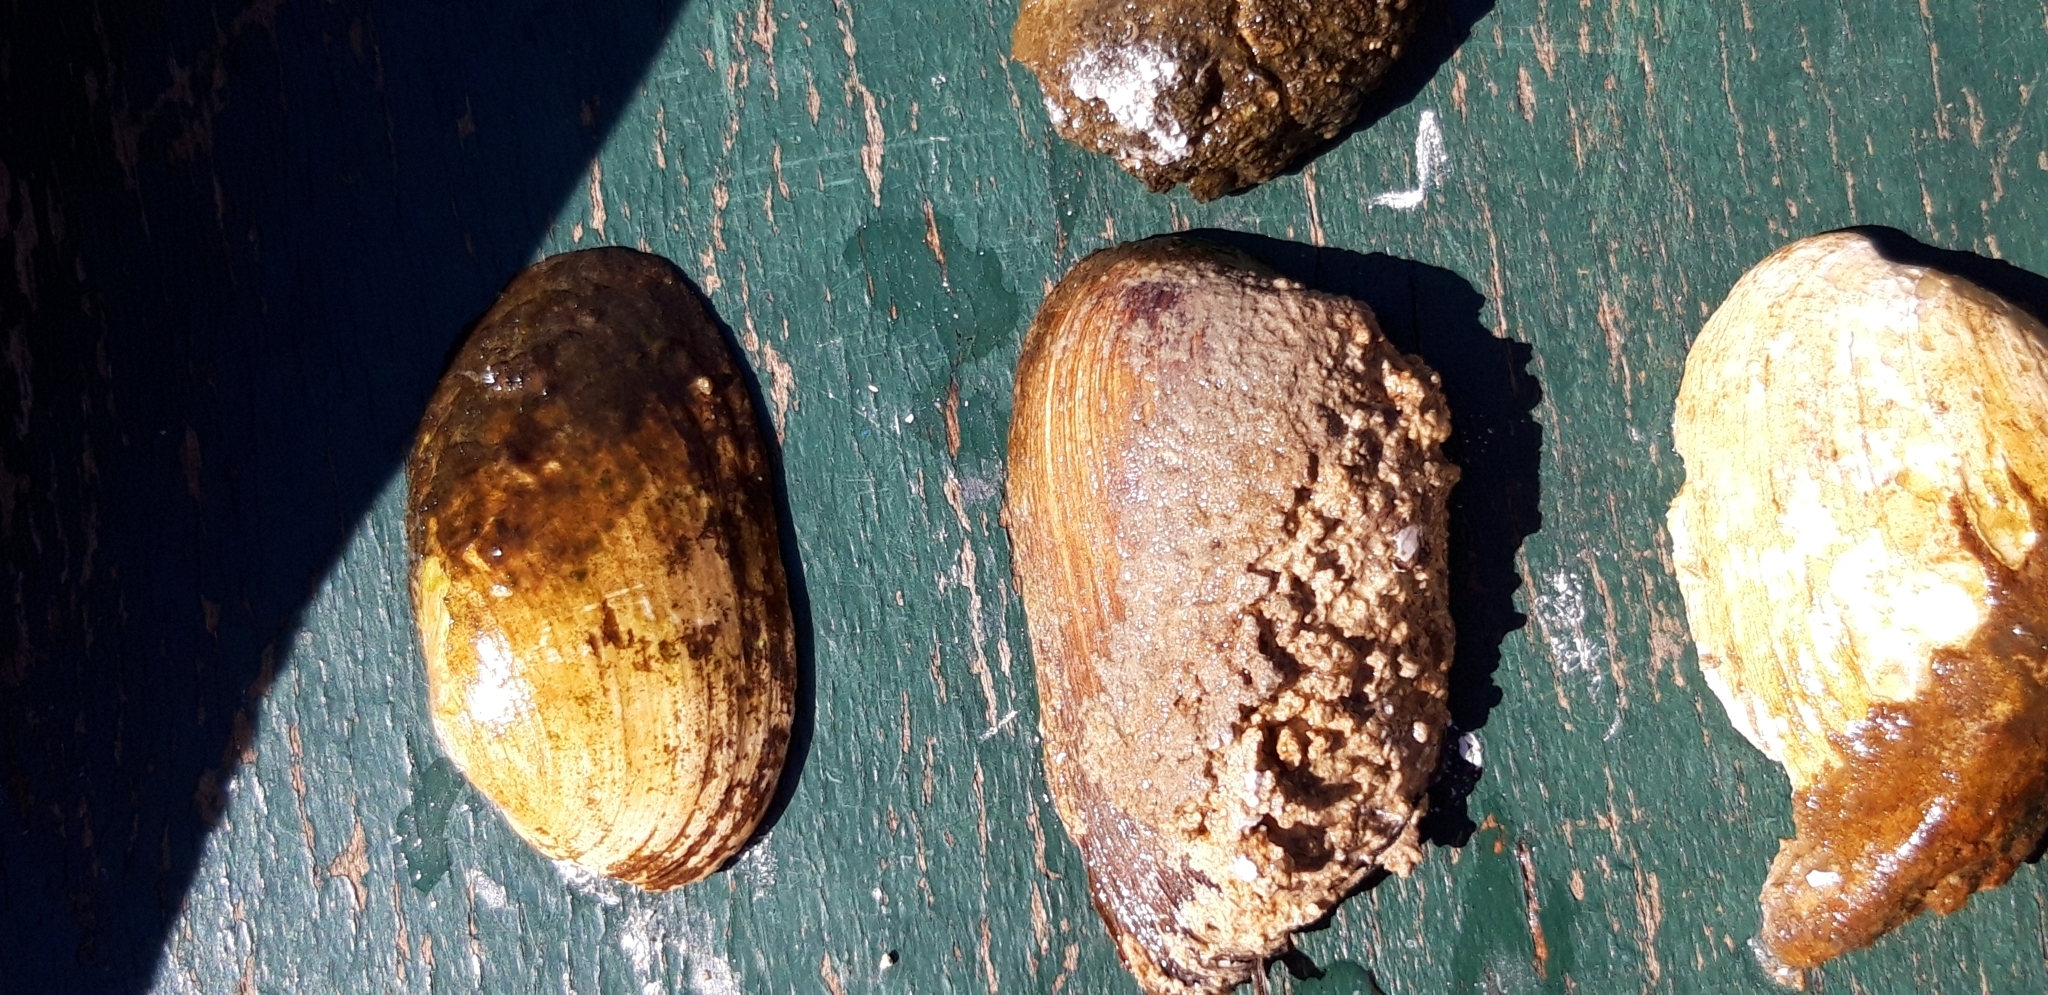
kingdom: Animalia
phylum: Mollusca
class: Bivalvia
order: Unionida
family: Unionidae
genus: Unio
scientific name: Unio crassus
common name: Thick shelled river mussel
